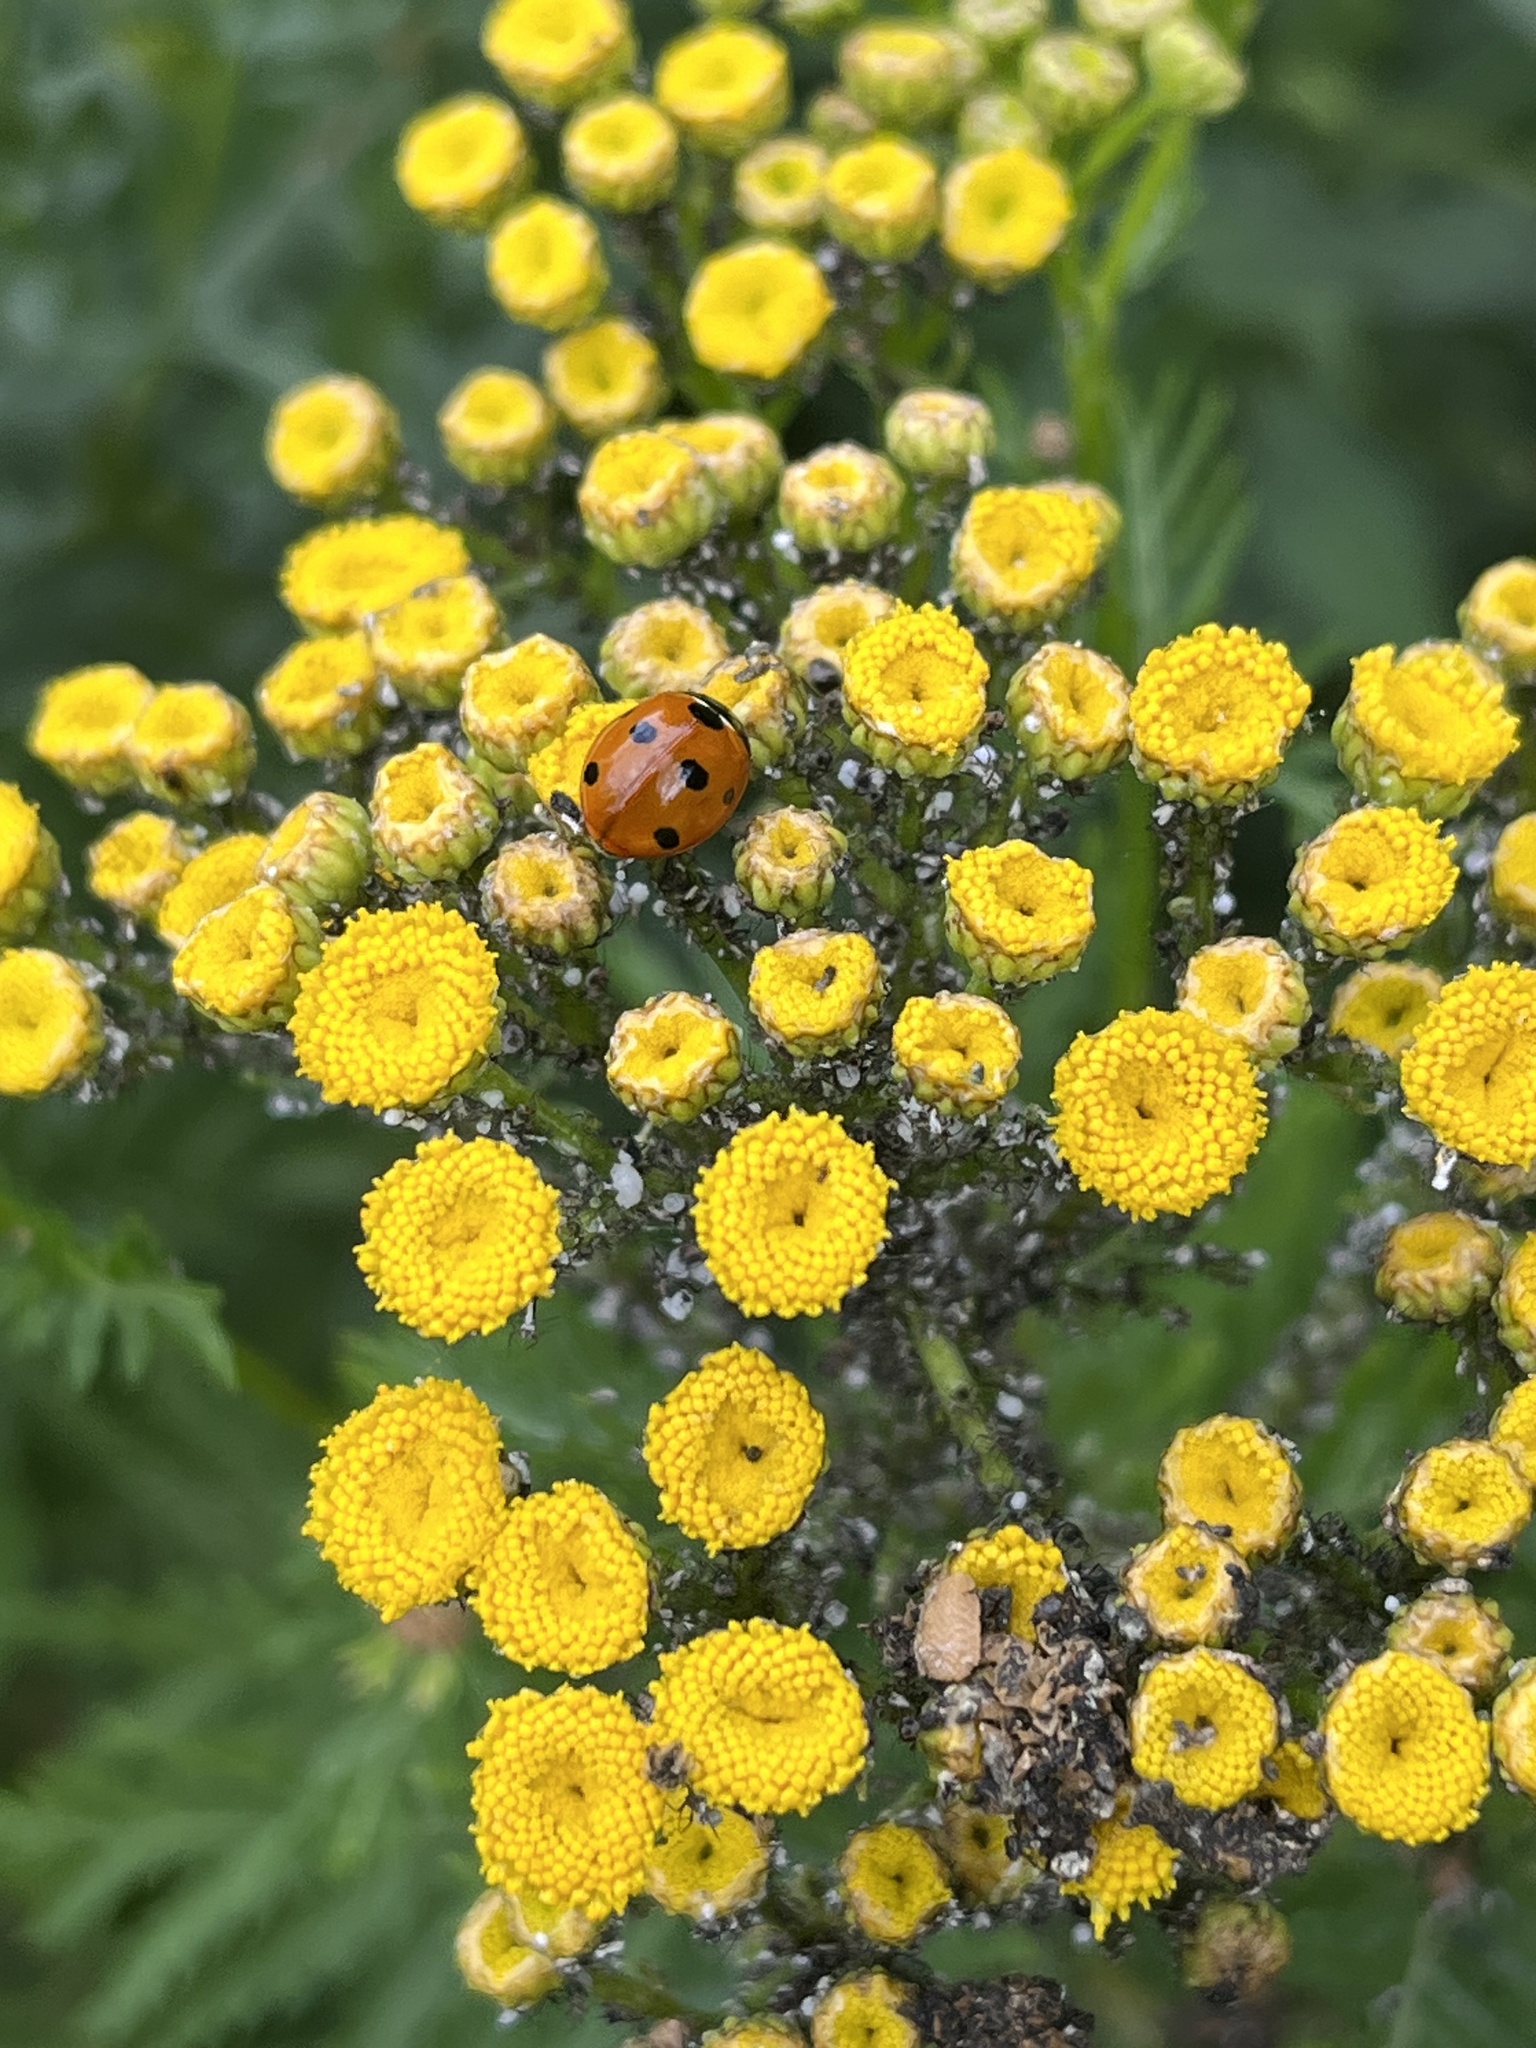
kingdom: Animalia
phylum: Arthropoda
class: Insecta
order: Coleoptera
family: Coccinellidae
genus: Coccinella
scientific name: Coccinella septempunctata
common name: Sevenspotted lady beetle
